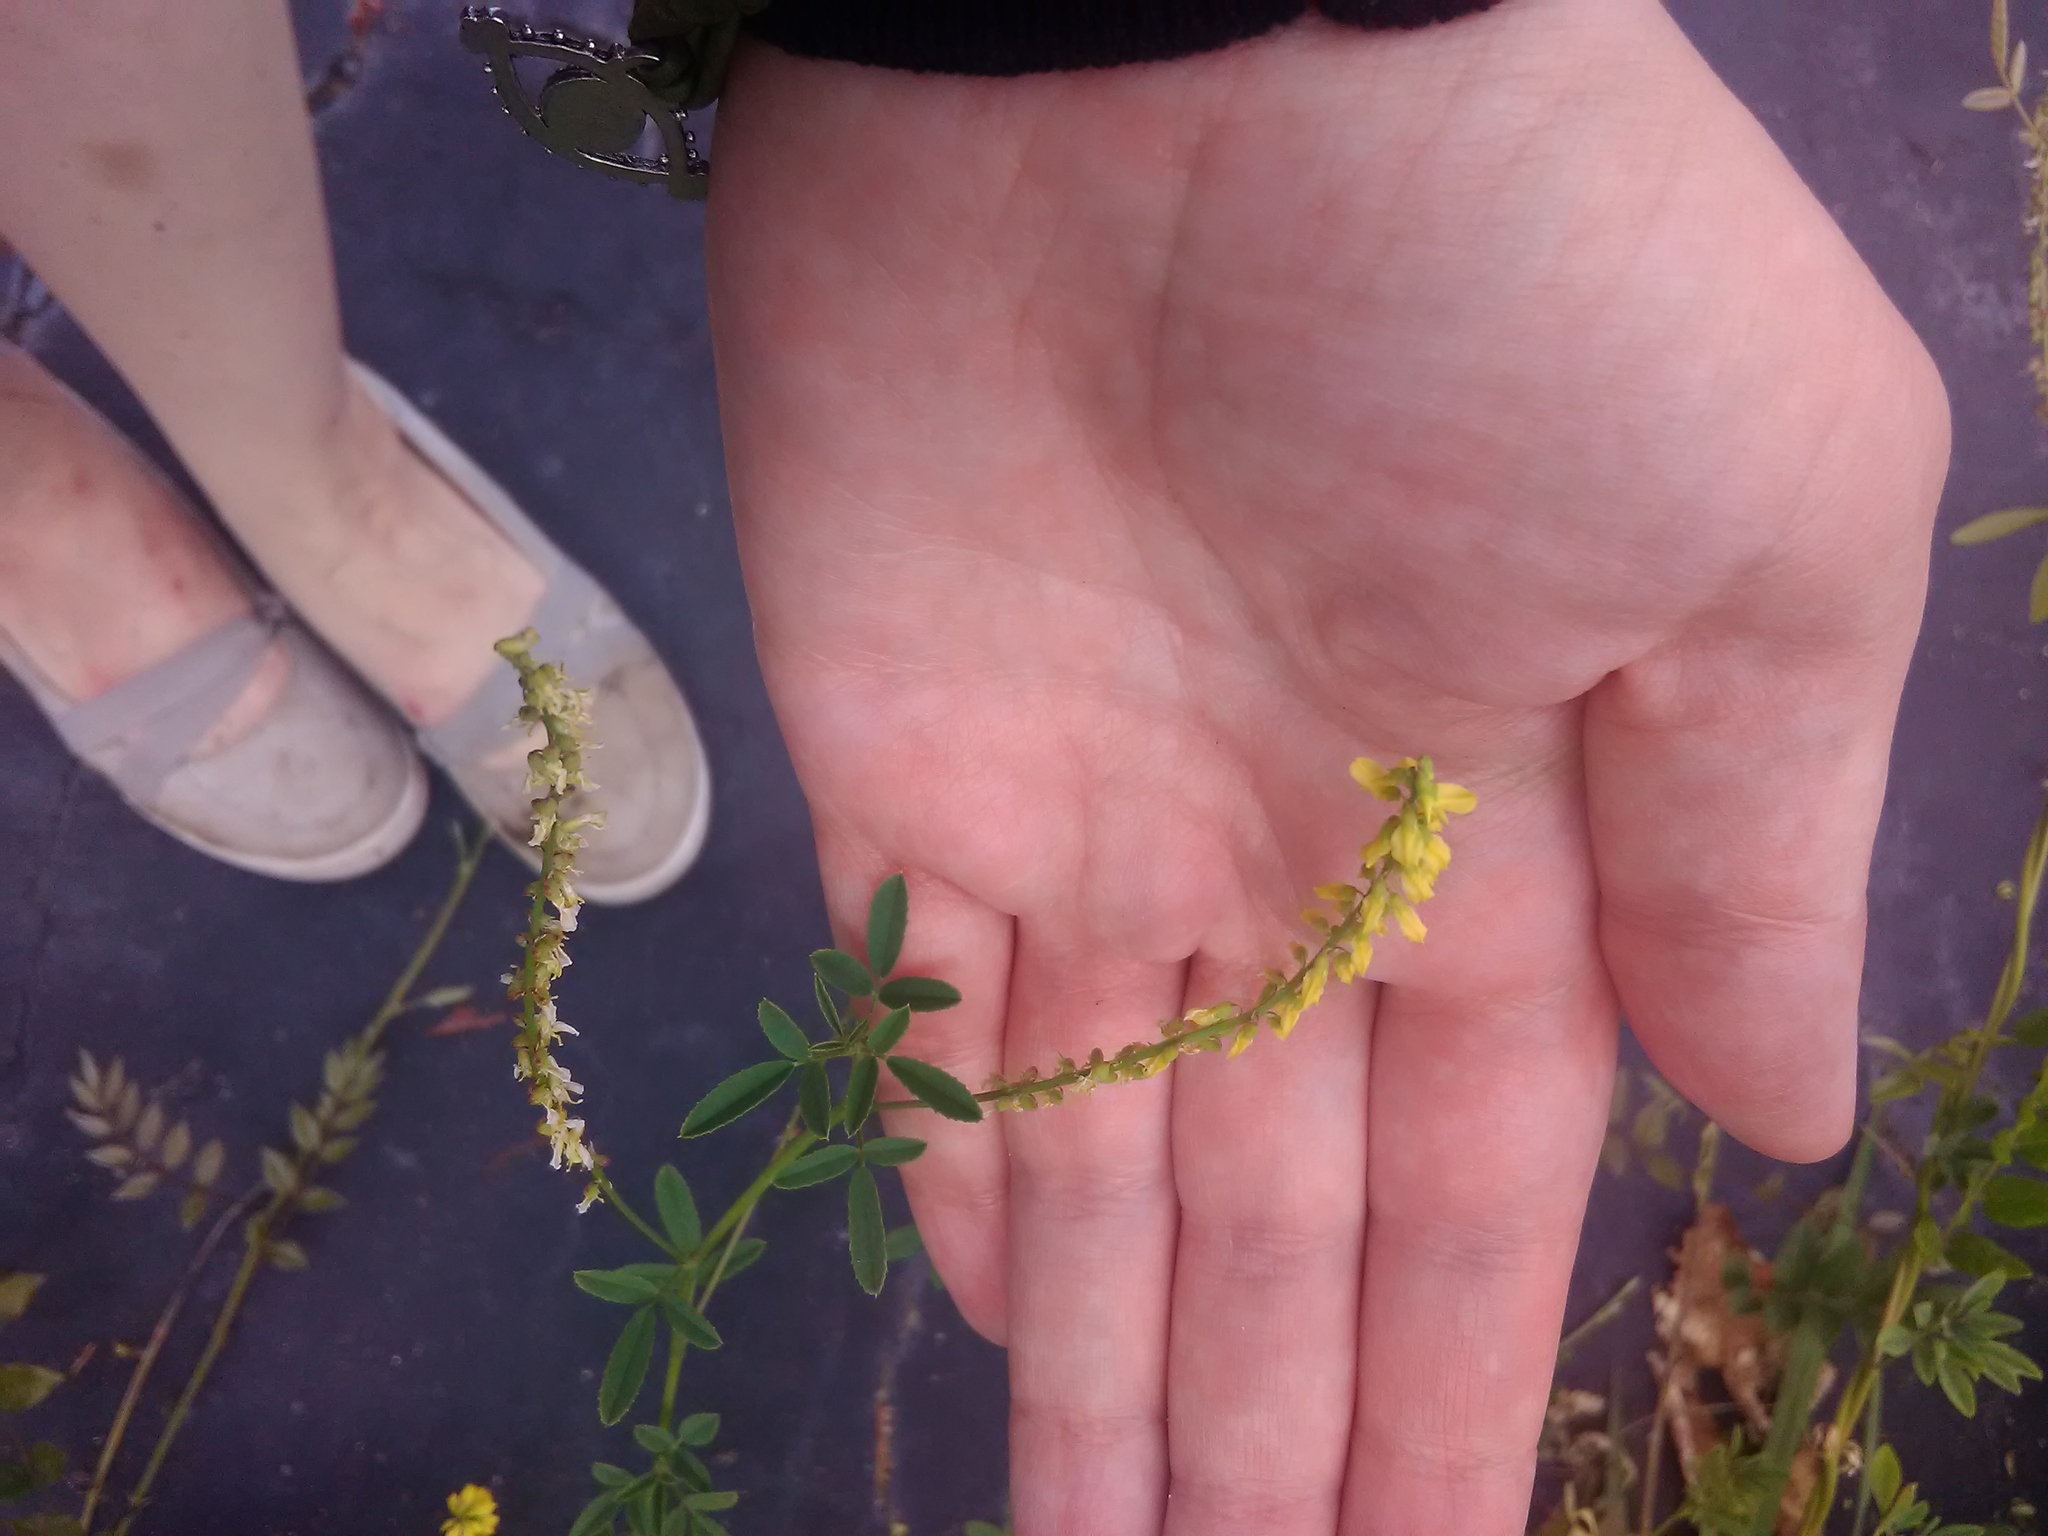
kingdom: Plantae
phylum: Tracheophyta
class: Magnoliopsida
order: Fabales
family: Fabaceae
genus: Melilotus
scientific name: Melilotus officinalis
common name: Sweetclover
